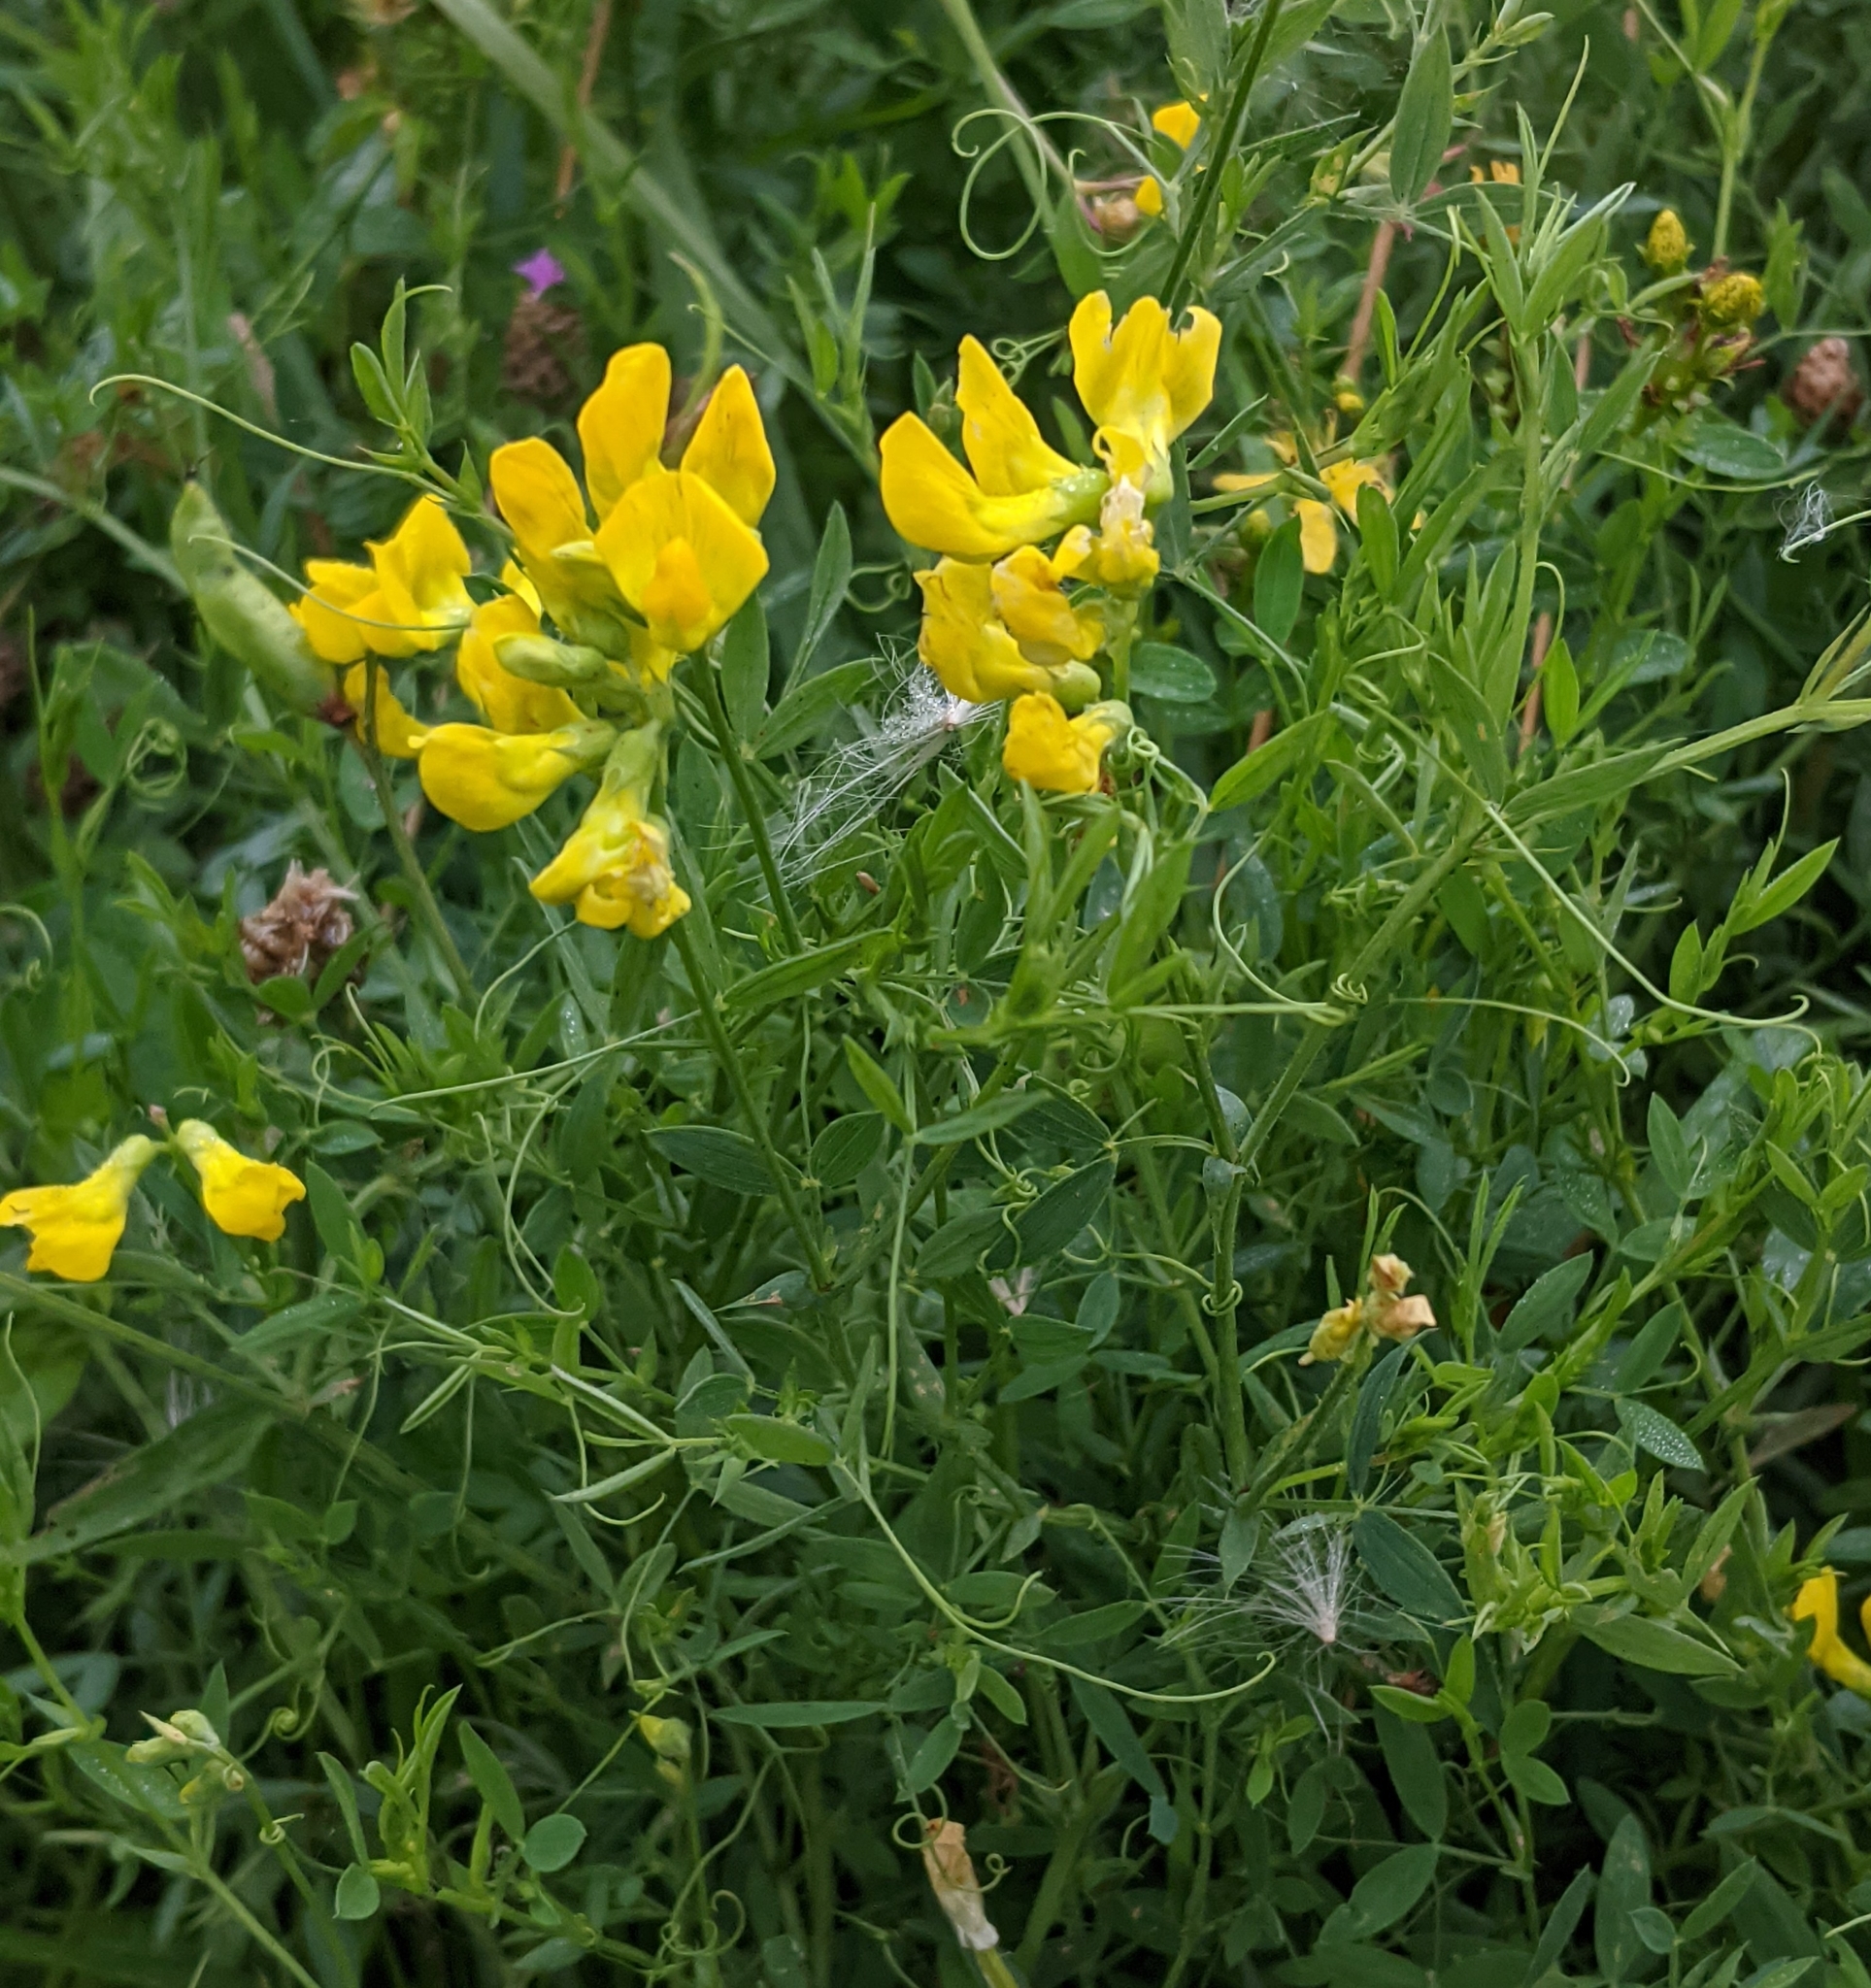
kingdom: Plantae
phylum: Tracheophyta
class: Magnoliopsida
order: Fabales
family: Fabaceae
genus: Lathyrus
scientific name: Lathyrus pratensis
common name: Meadow vetchling
